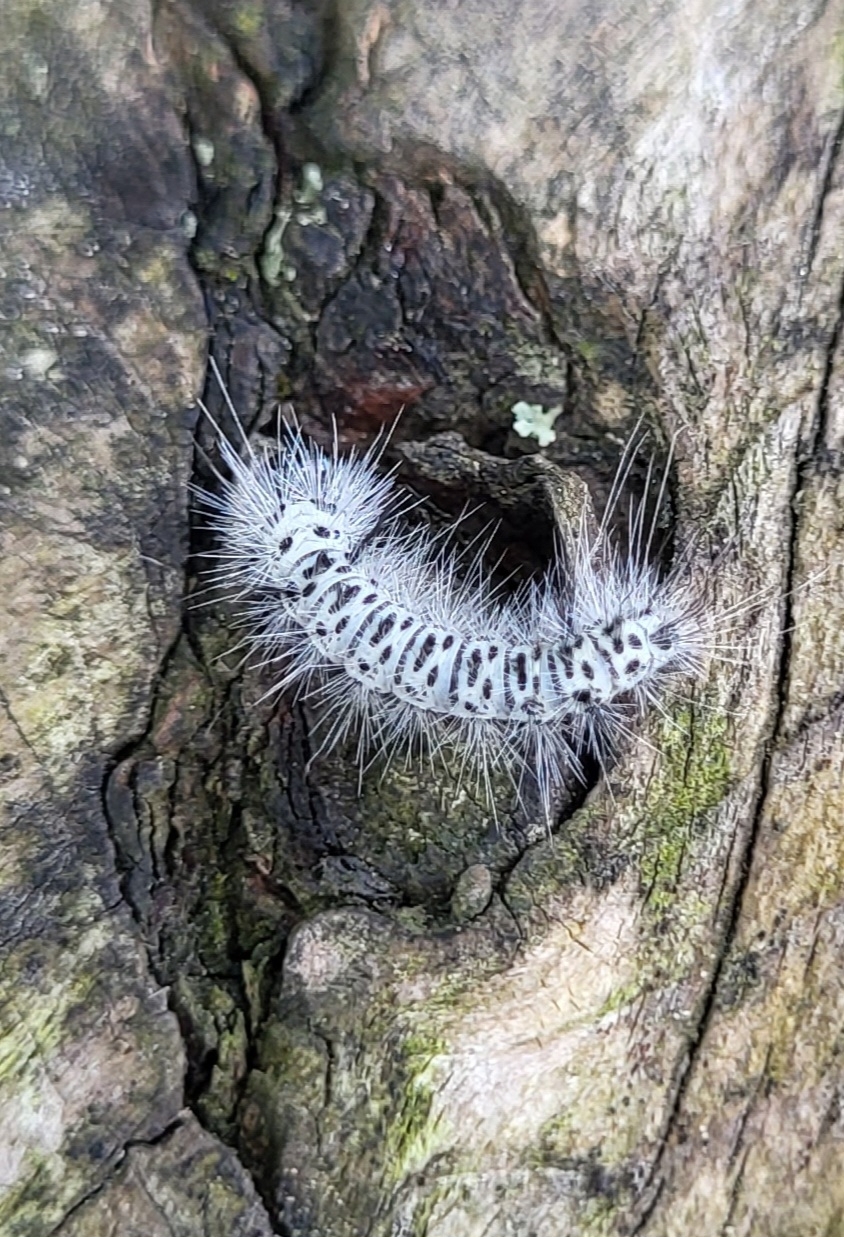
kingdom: Animalia
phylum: Arthropoda
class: Insecta
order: Lepidoptera
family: Erebidae
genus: Lophocampa
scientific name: Lophocampa caryae
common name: Hickory tussock moth
